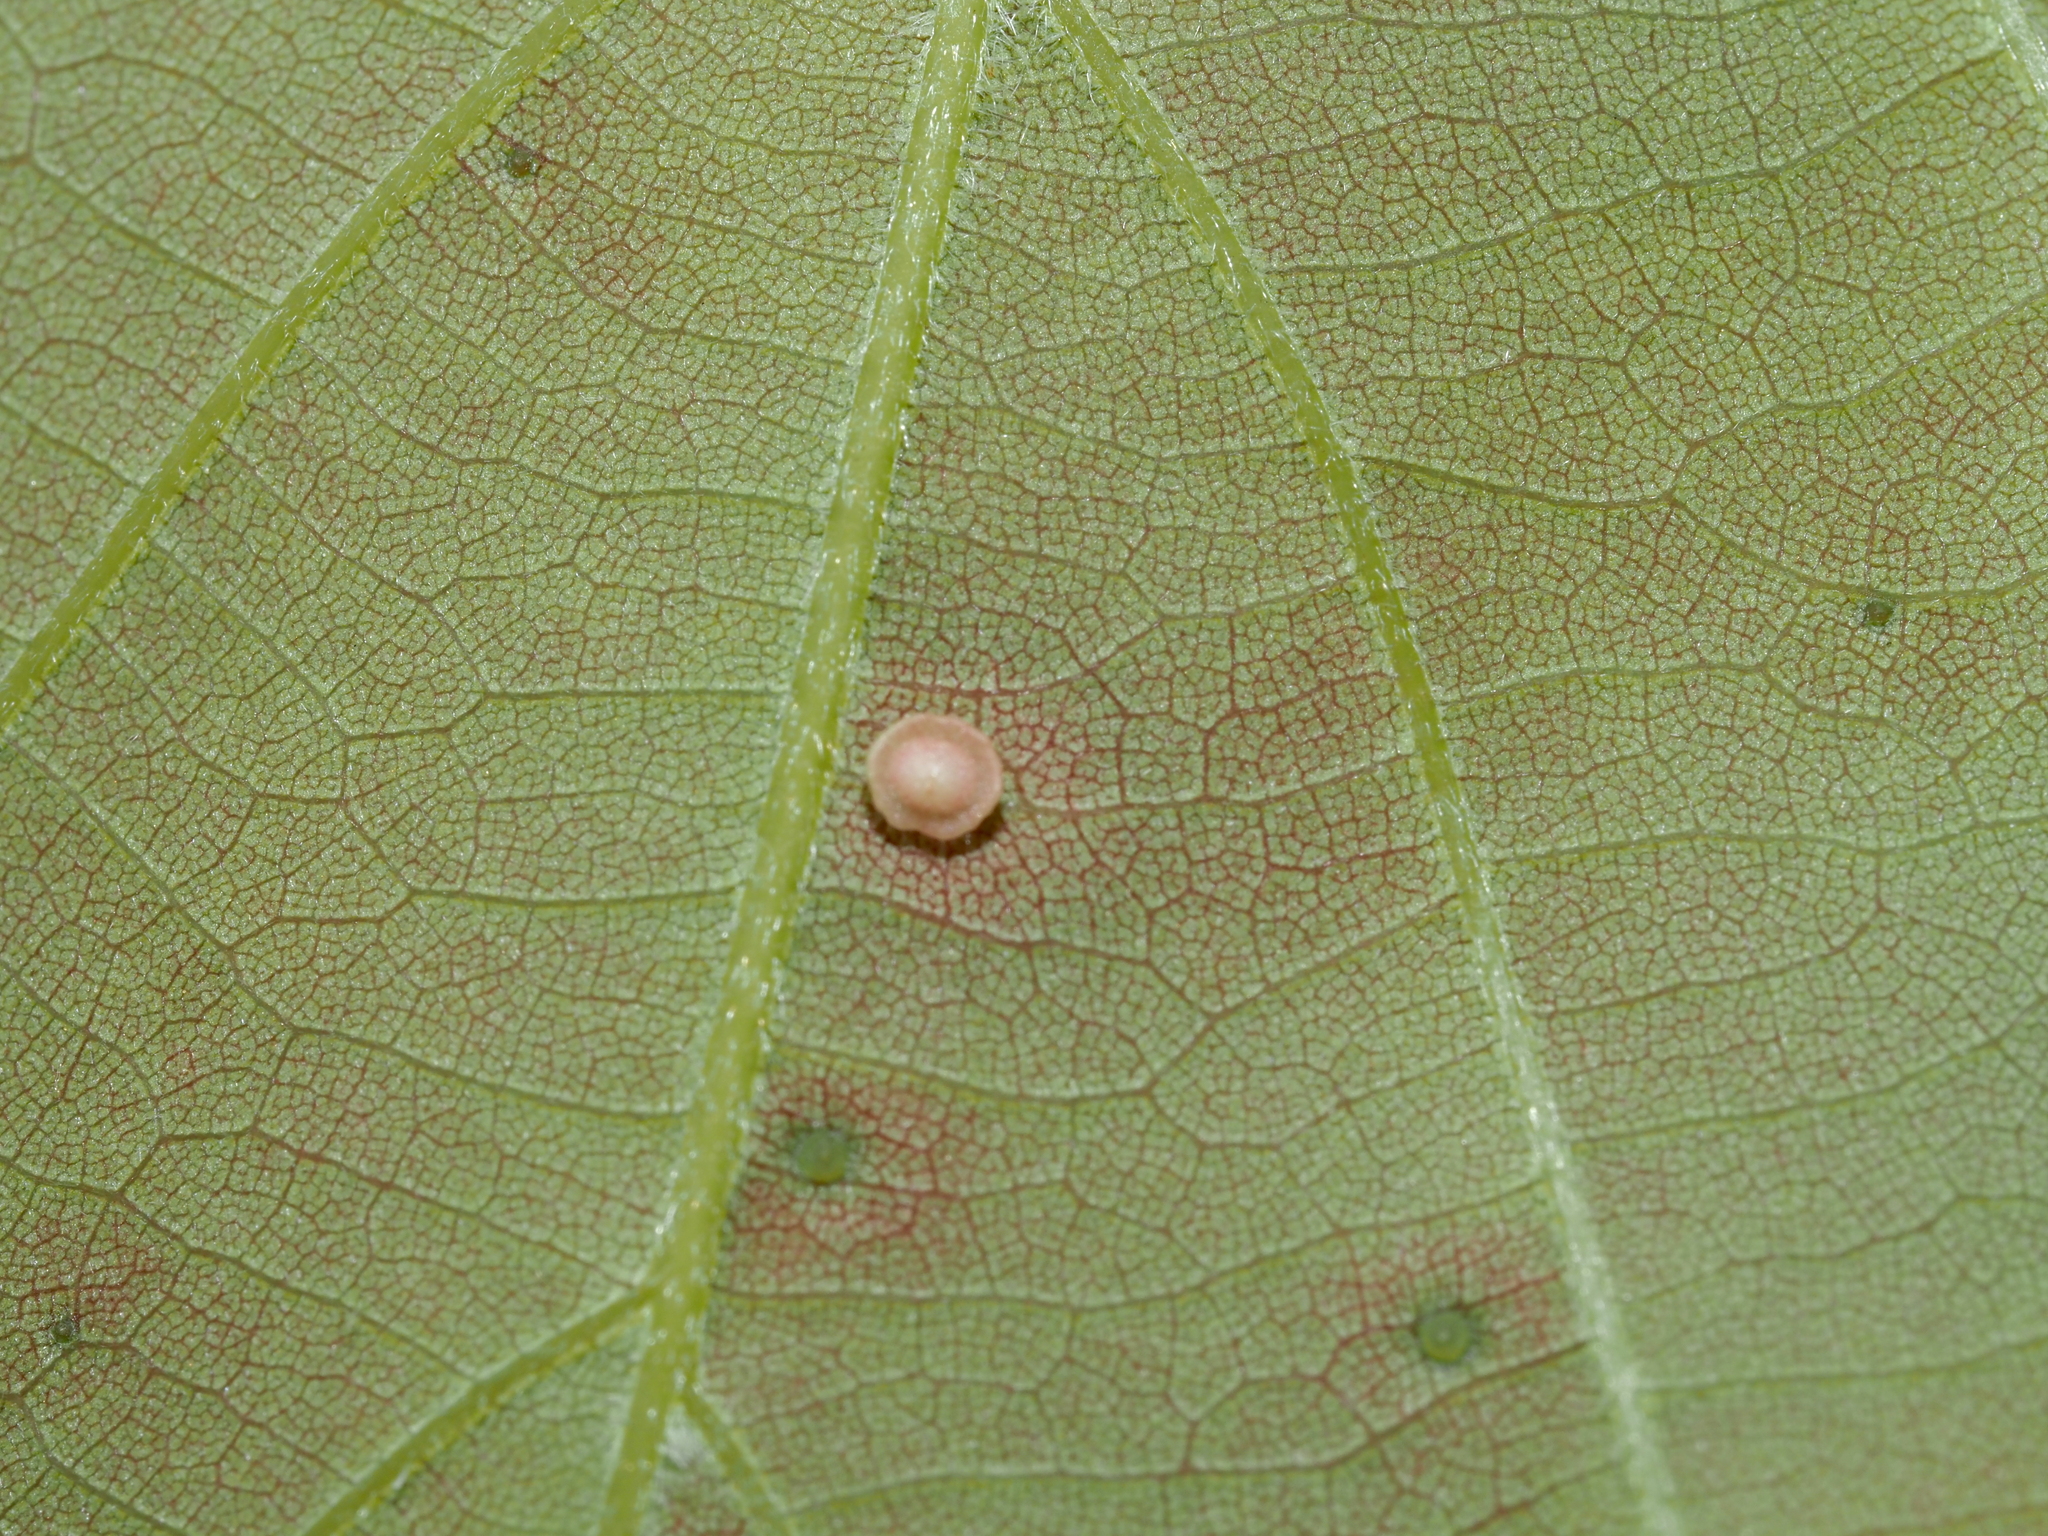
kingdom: Animalia
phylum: Arthropoda
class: Insecta
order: Hymenoptera
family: Cynipidae
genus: Neuroterus
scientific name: Neuroterus
